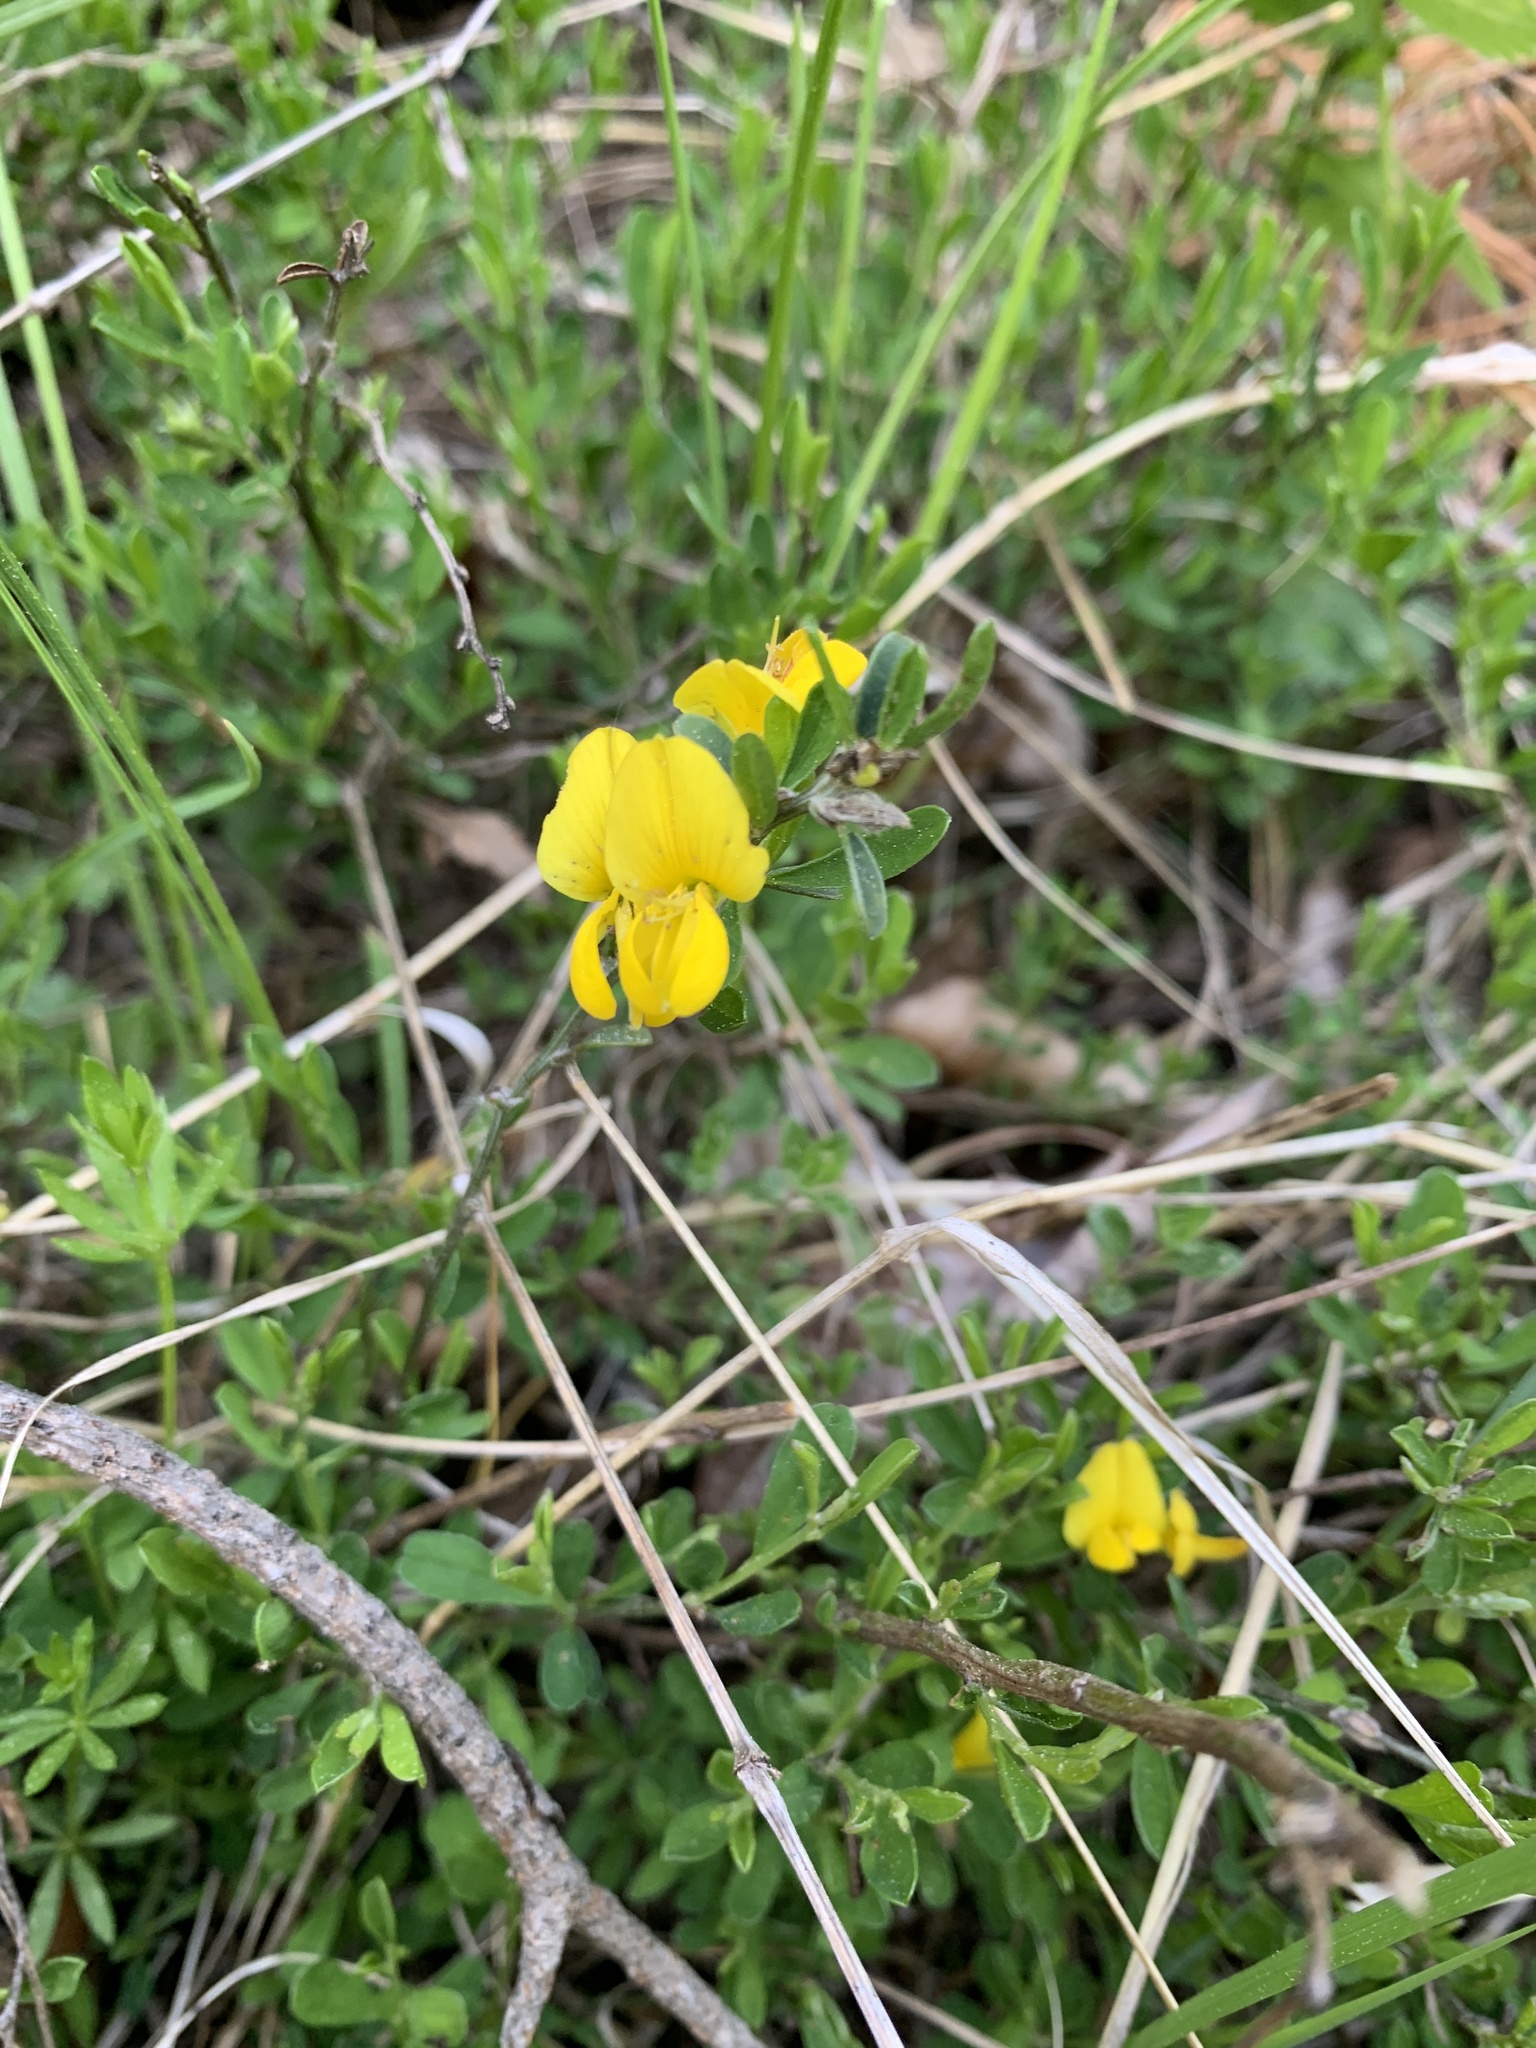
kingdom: Plantae
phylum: Tracheophyta
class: Magnoliopsida
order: Fabales
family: Fabaceae
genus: Genista
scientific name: Genista pilosa
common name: Hairy greenweed
